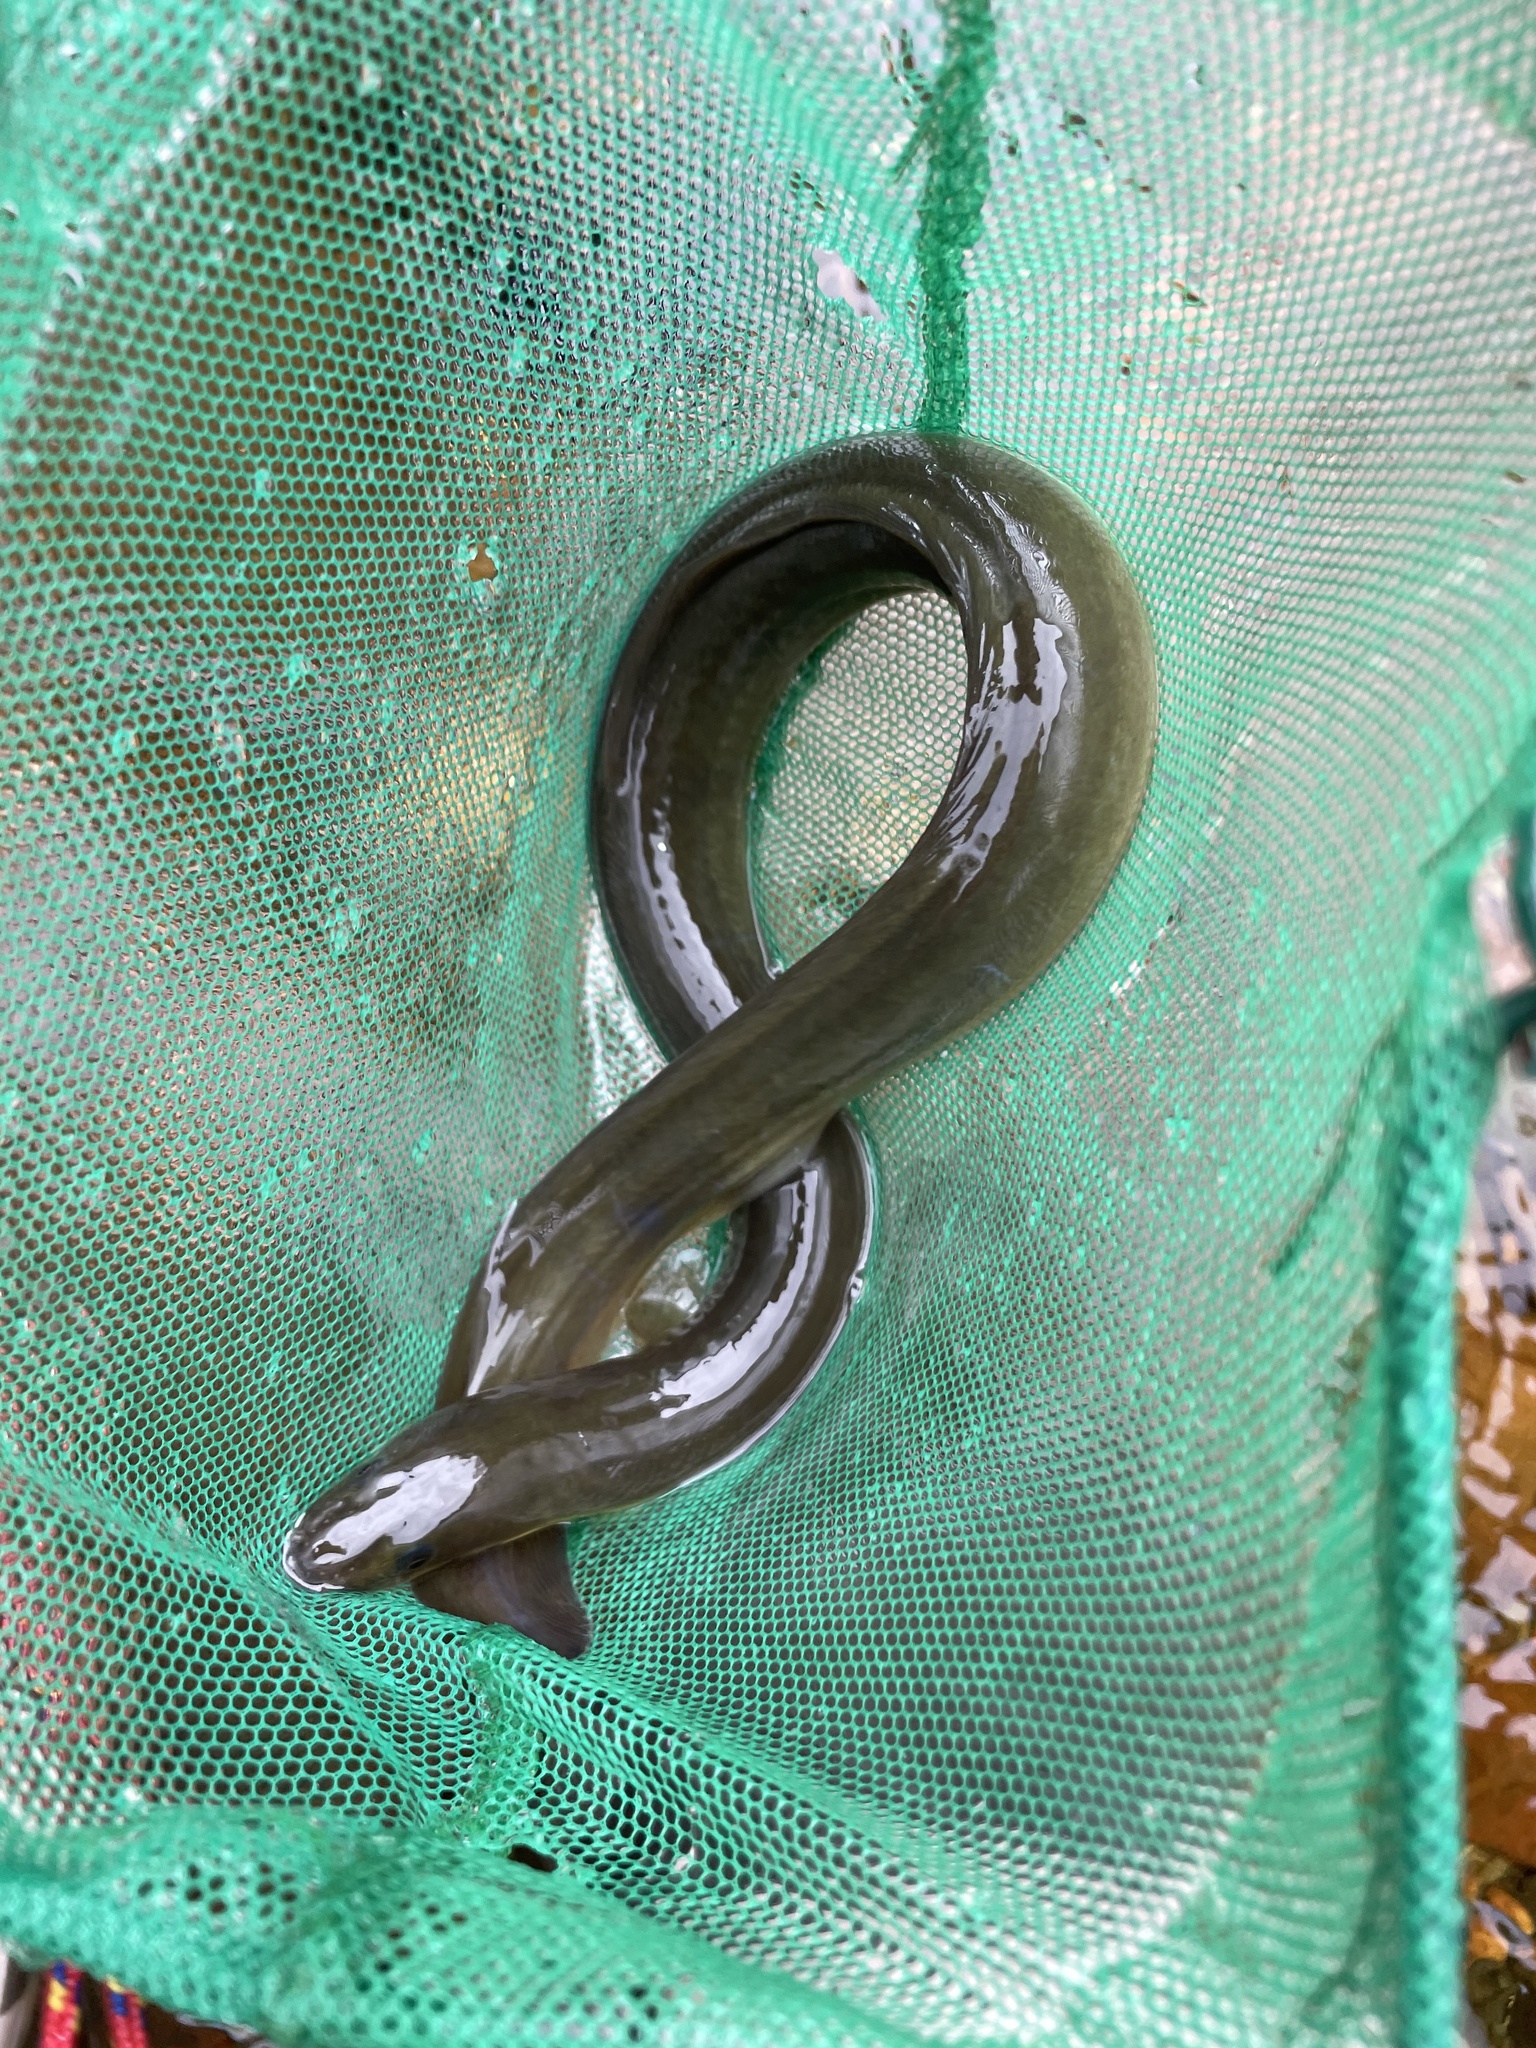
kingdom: Animalia
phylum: Chordata
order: Anguilliformes
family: Anguillidae
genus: Anguilla
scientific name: Anguilla rostrata
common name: American eel
